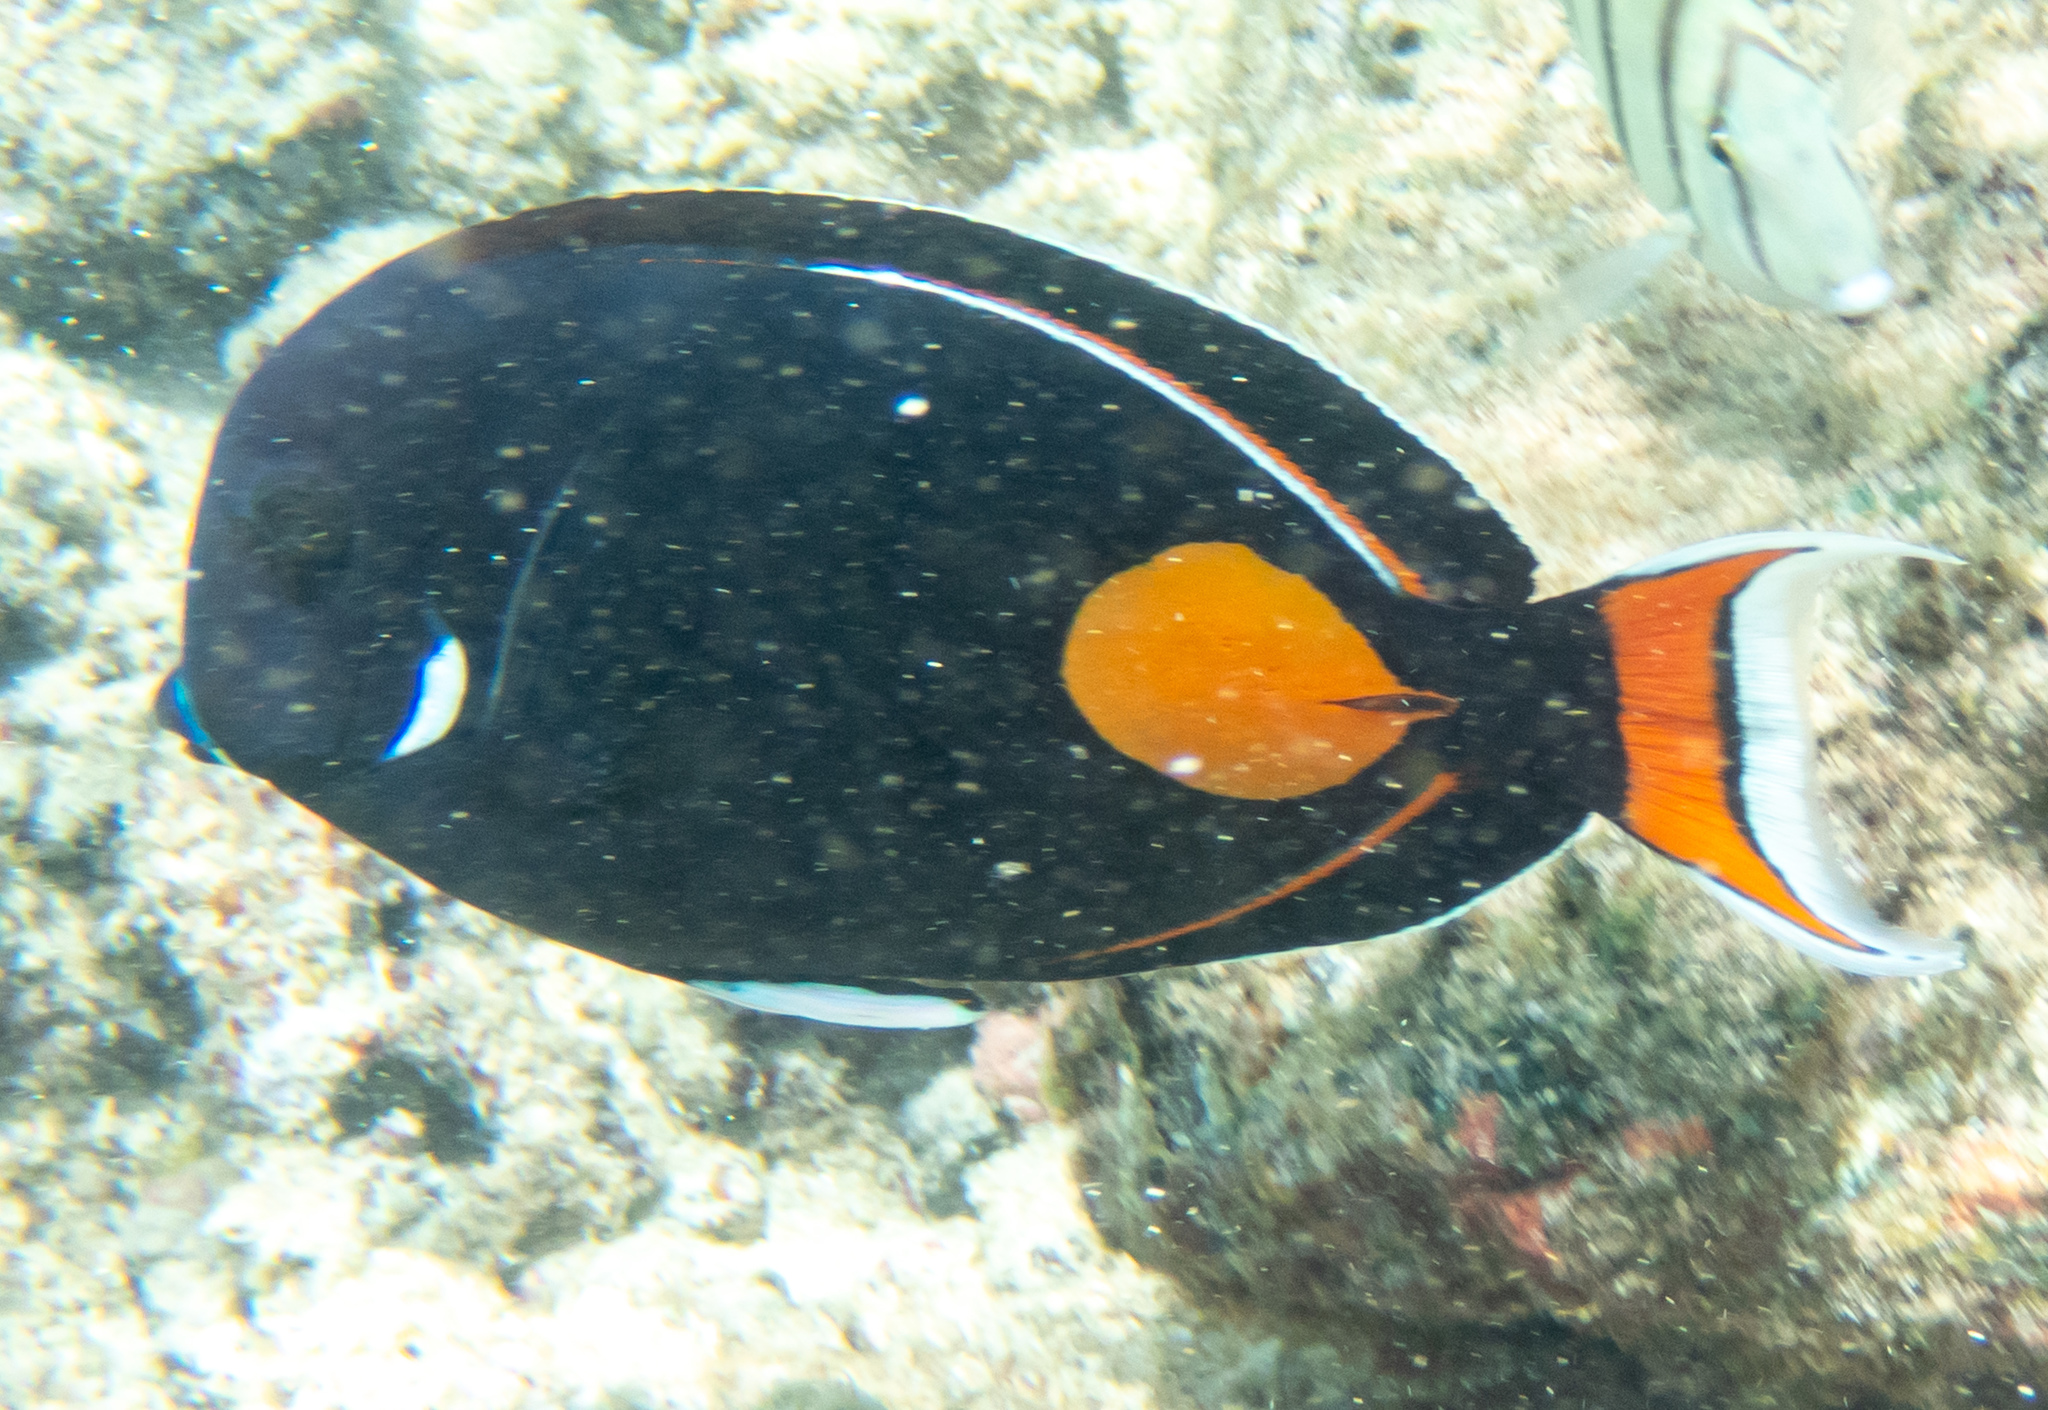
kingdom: Animalia
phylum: Chordata
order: Perciformes
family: Acanthuridae
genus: Acanthurus
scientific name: Acanthurus achilles
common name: Achilles tang
